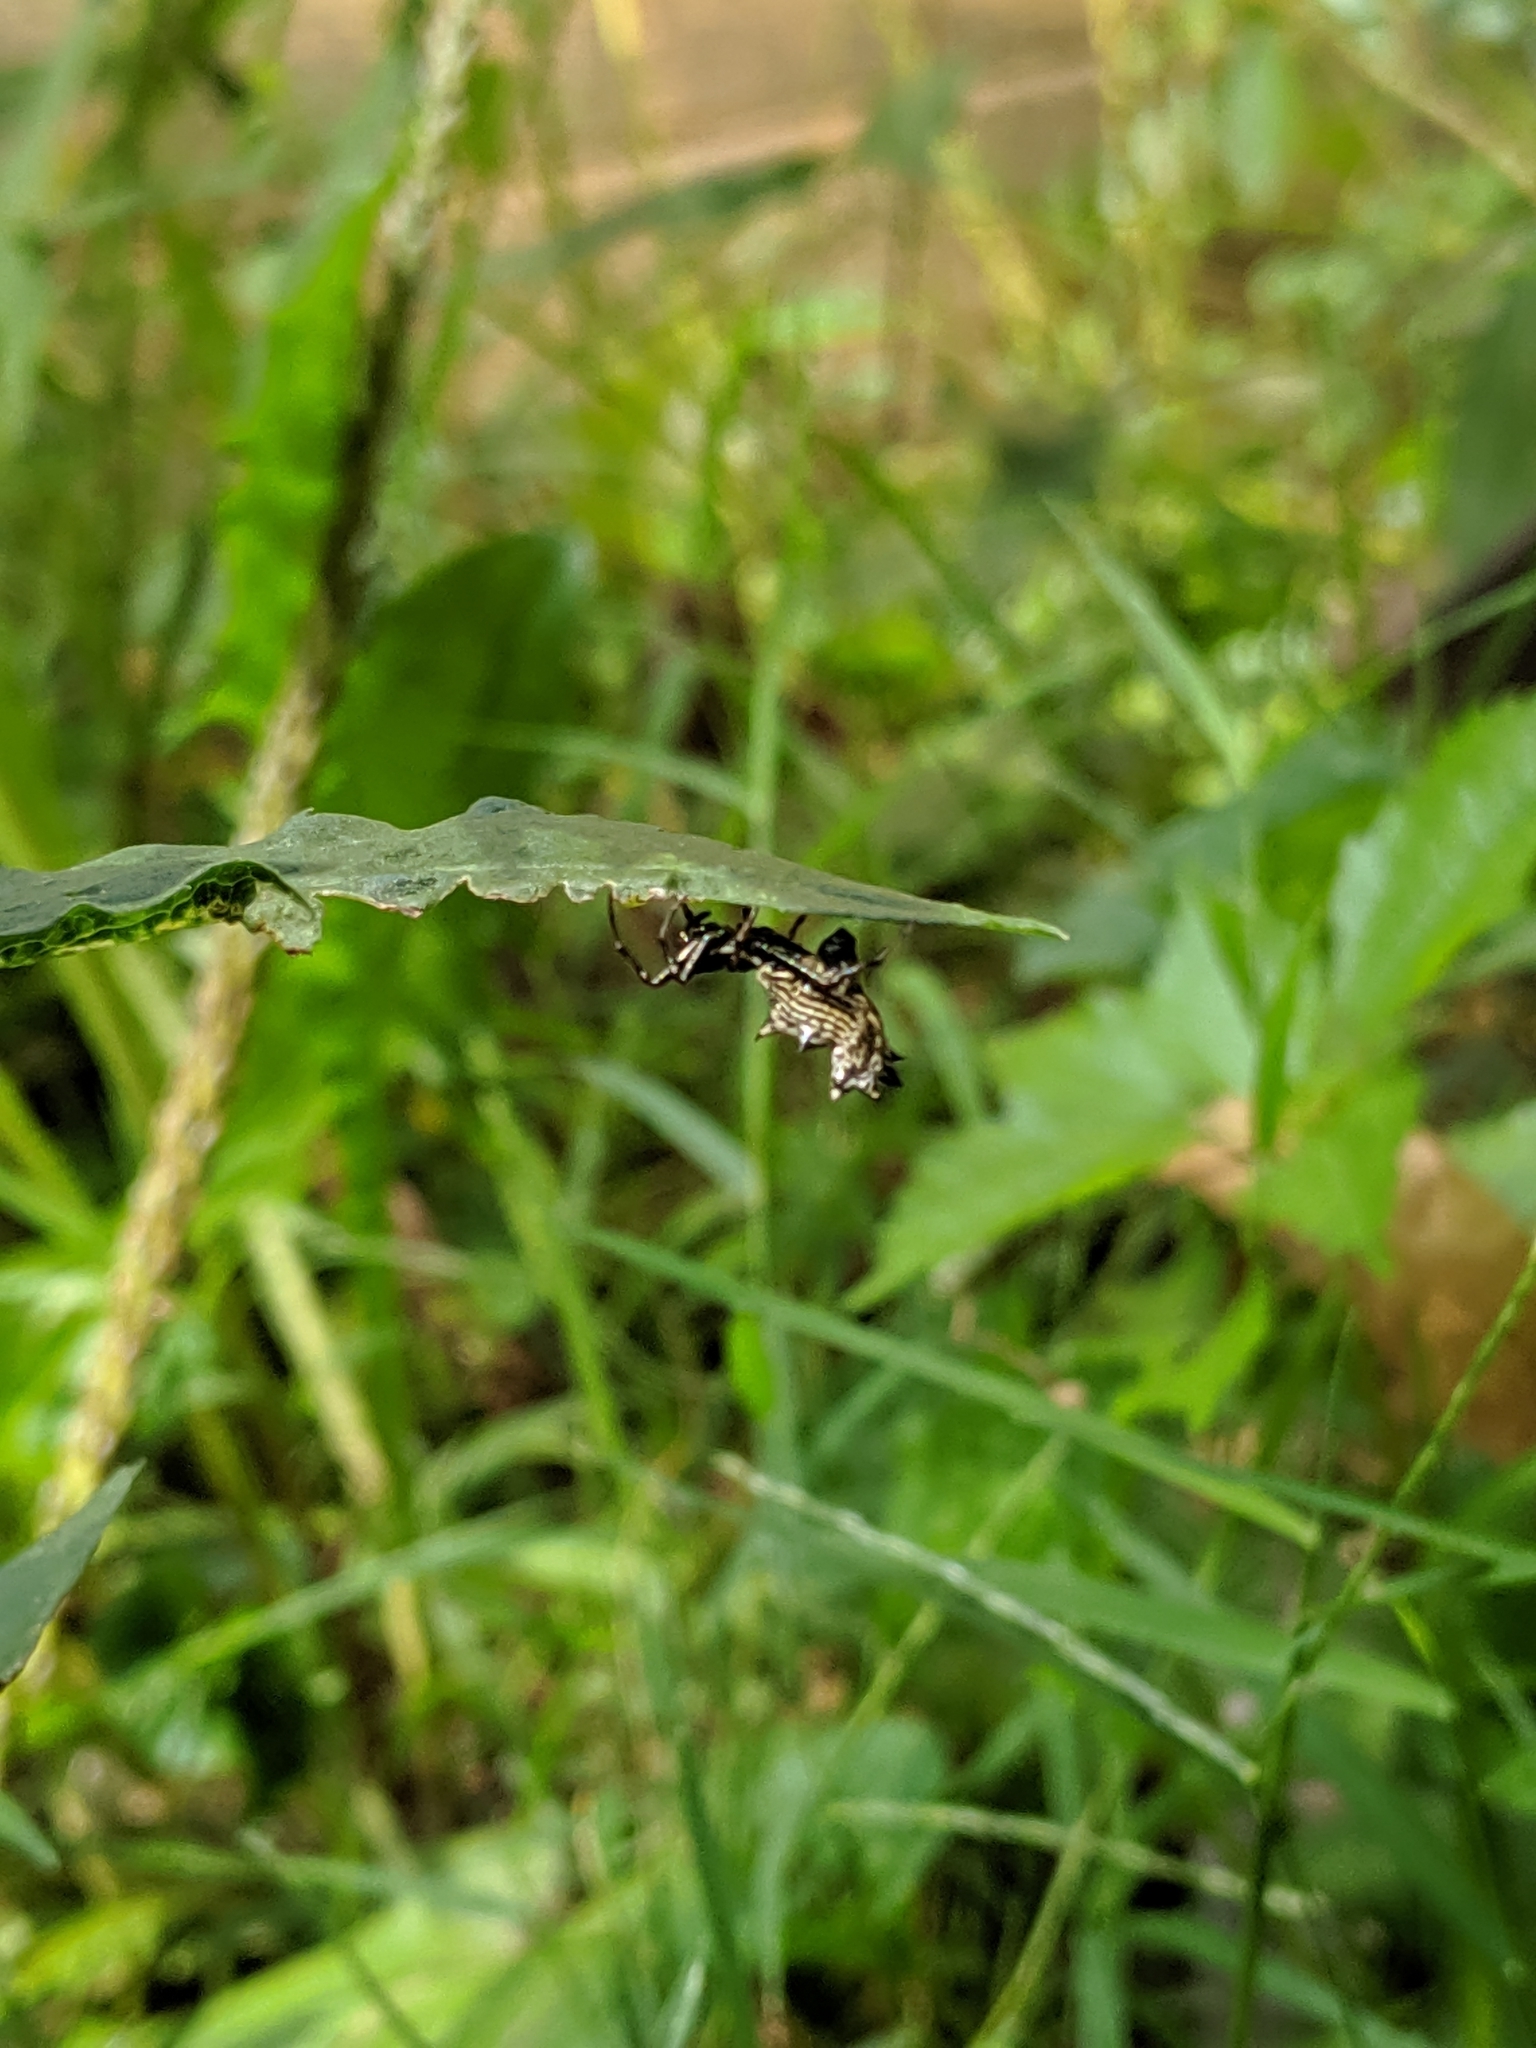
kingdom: Animalia
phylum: Arthropoda
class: Arachnida
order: Araneae
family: Araneidae
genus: Micrathena
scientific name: Micrathena gracilis
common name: Orb weavers
